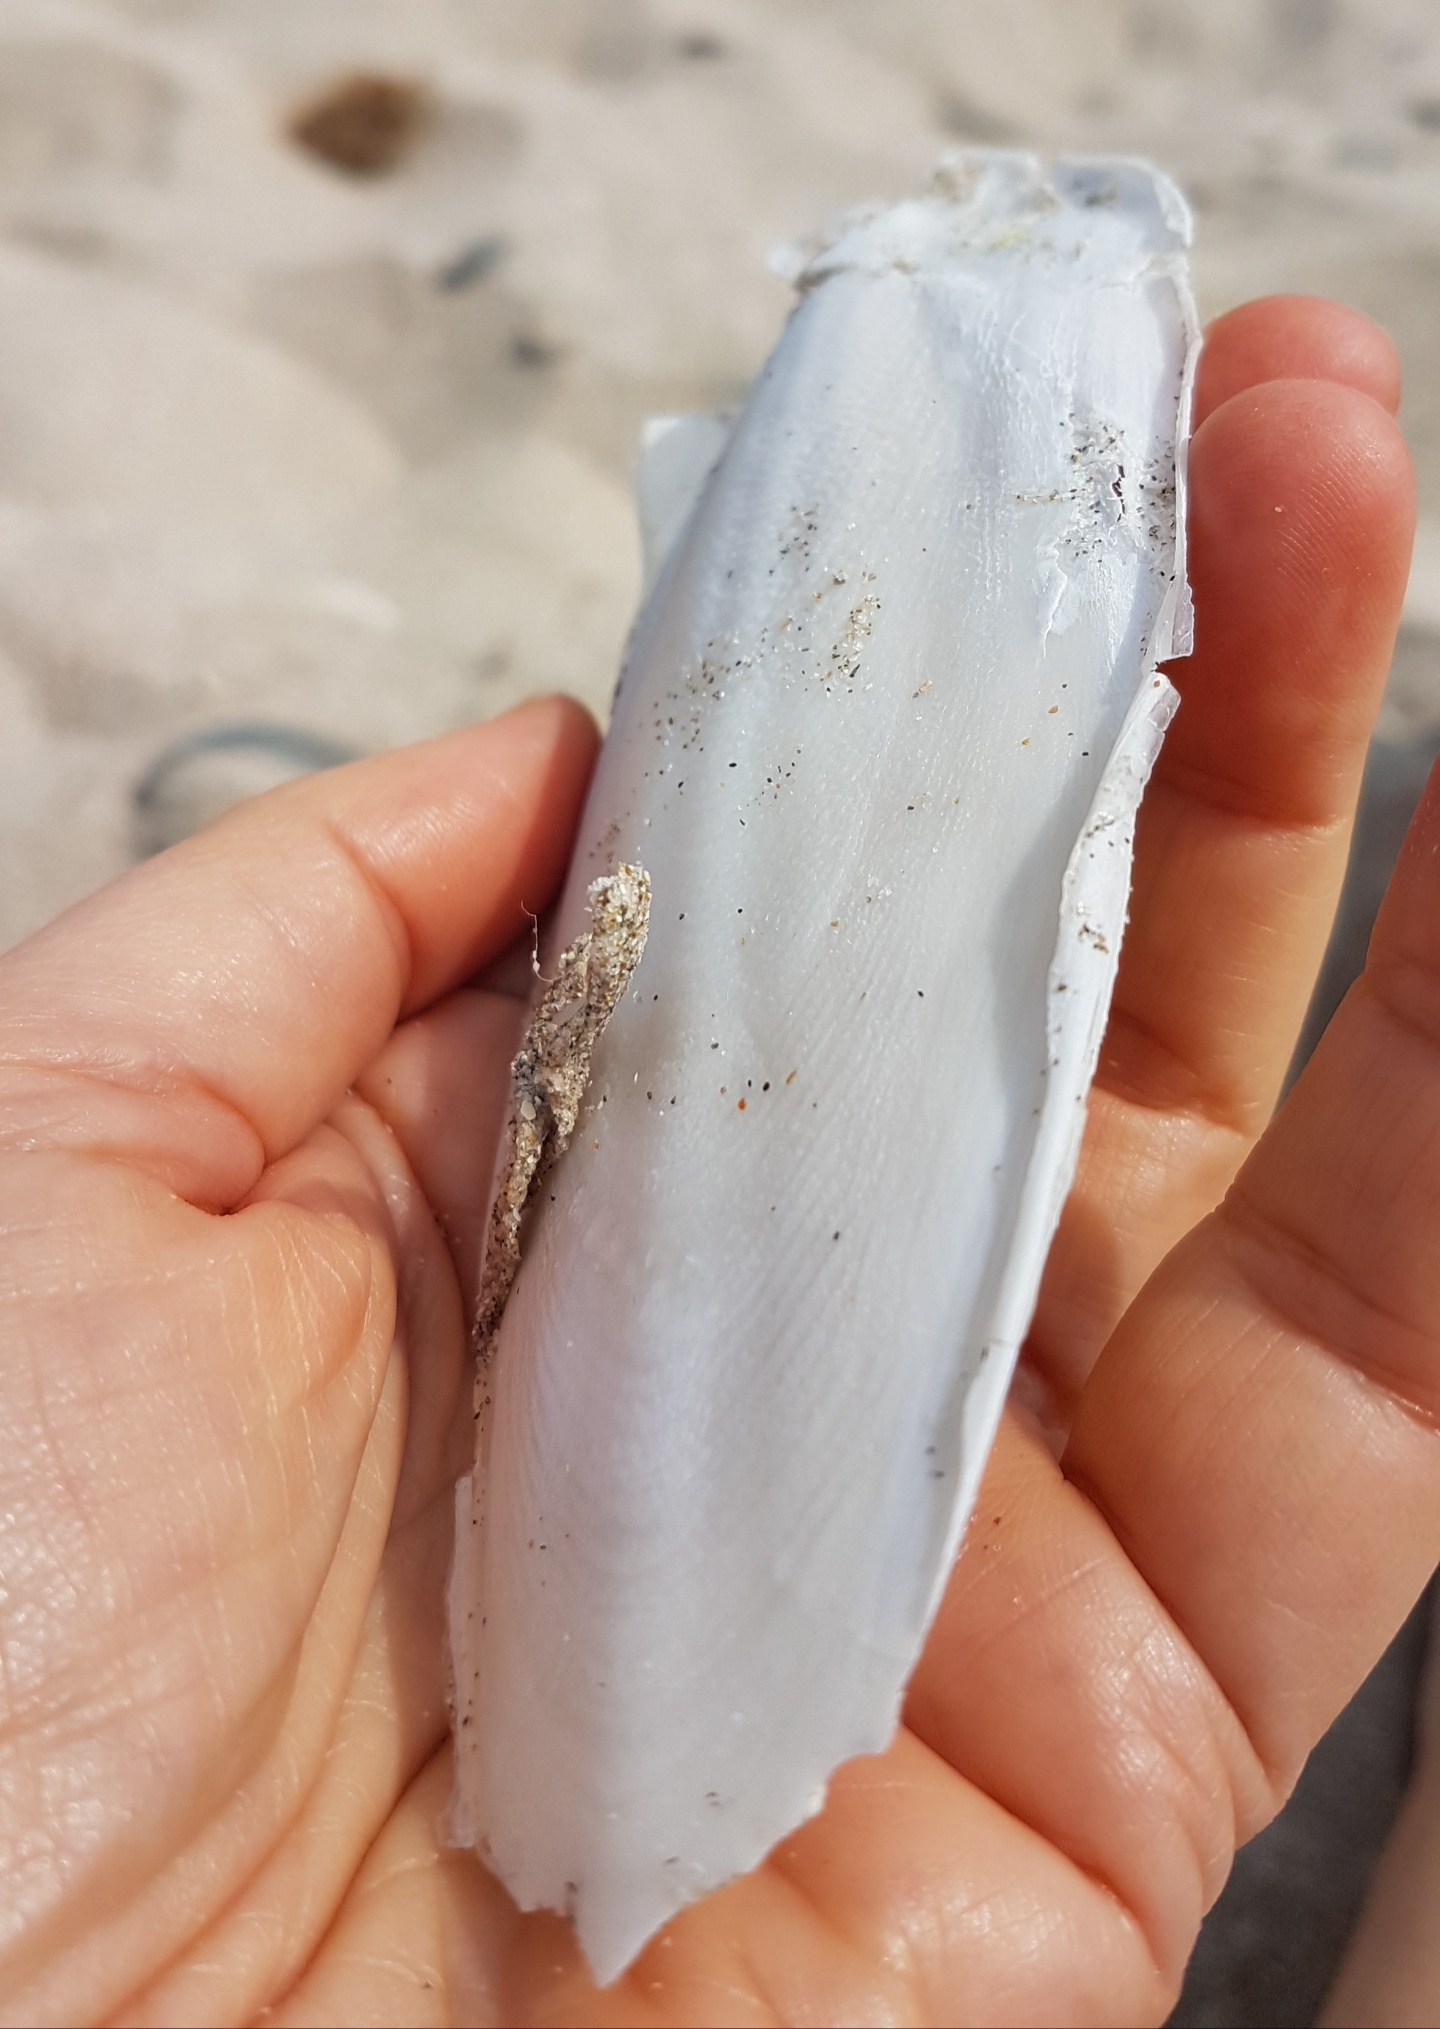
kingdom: Animalia
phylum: Mollusca
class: Cephalopoda
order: Sepiida
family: Sepiidae
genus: Sepia
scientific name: Sepia officinalis
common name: Common cuttlefish
